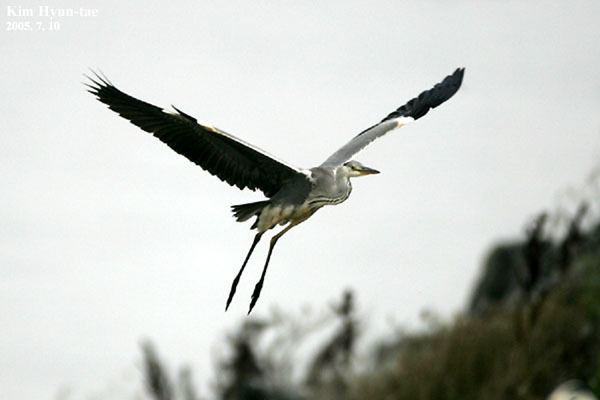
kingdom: Animalia
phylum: Chordata
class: Aves
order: Pelecaniformes
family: Ardeidae
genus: Ardea
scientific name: Ardea cinerea
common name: Grey heron
